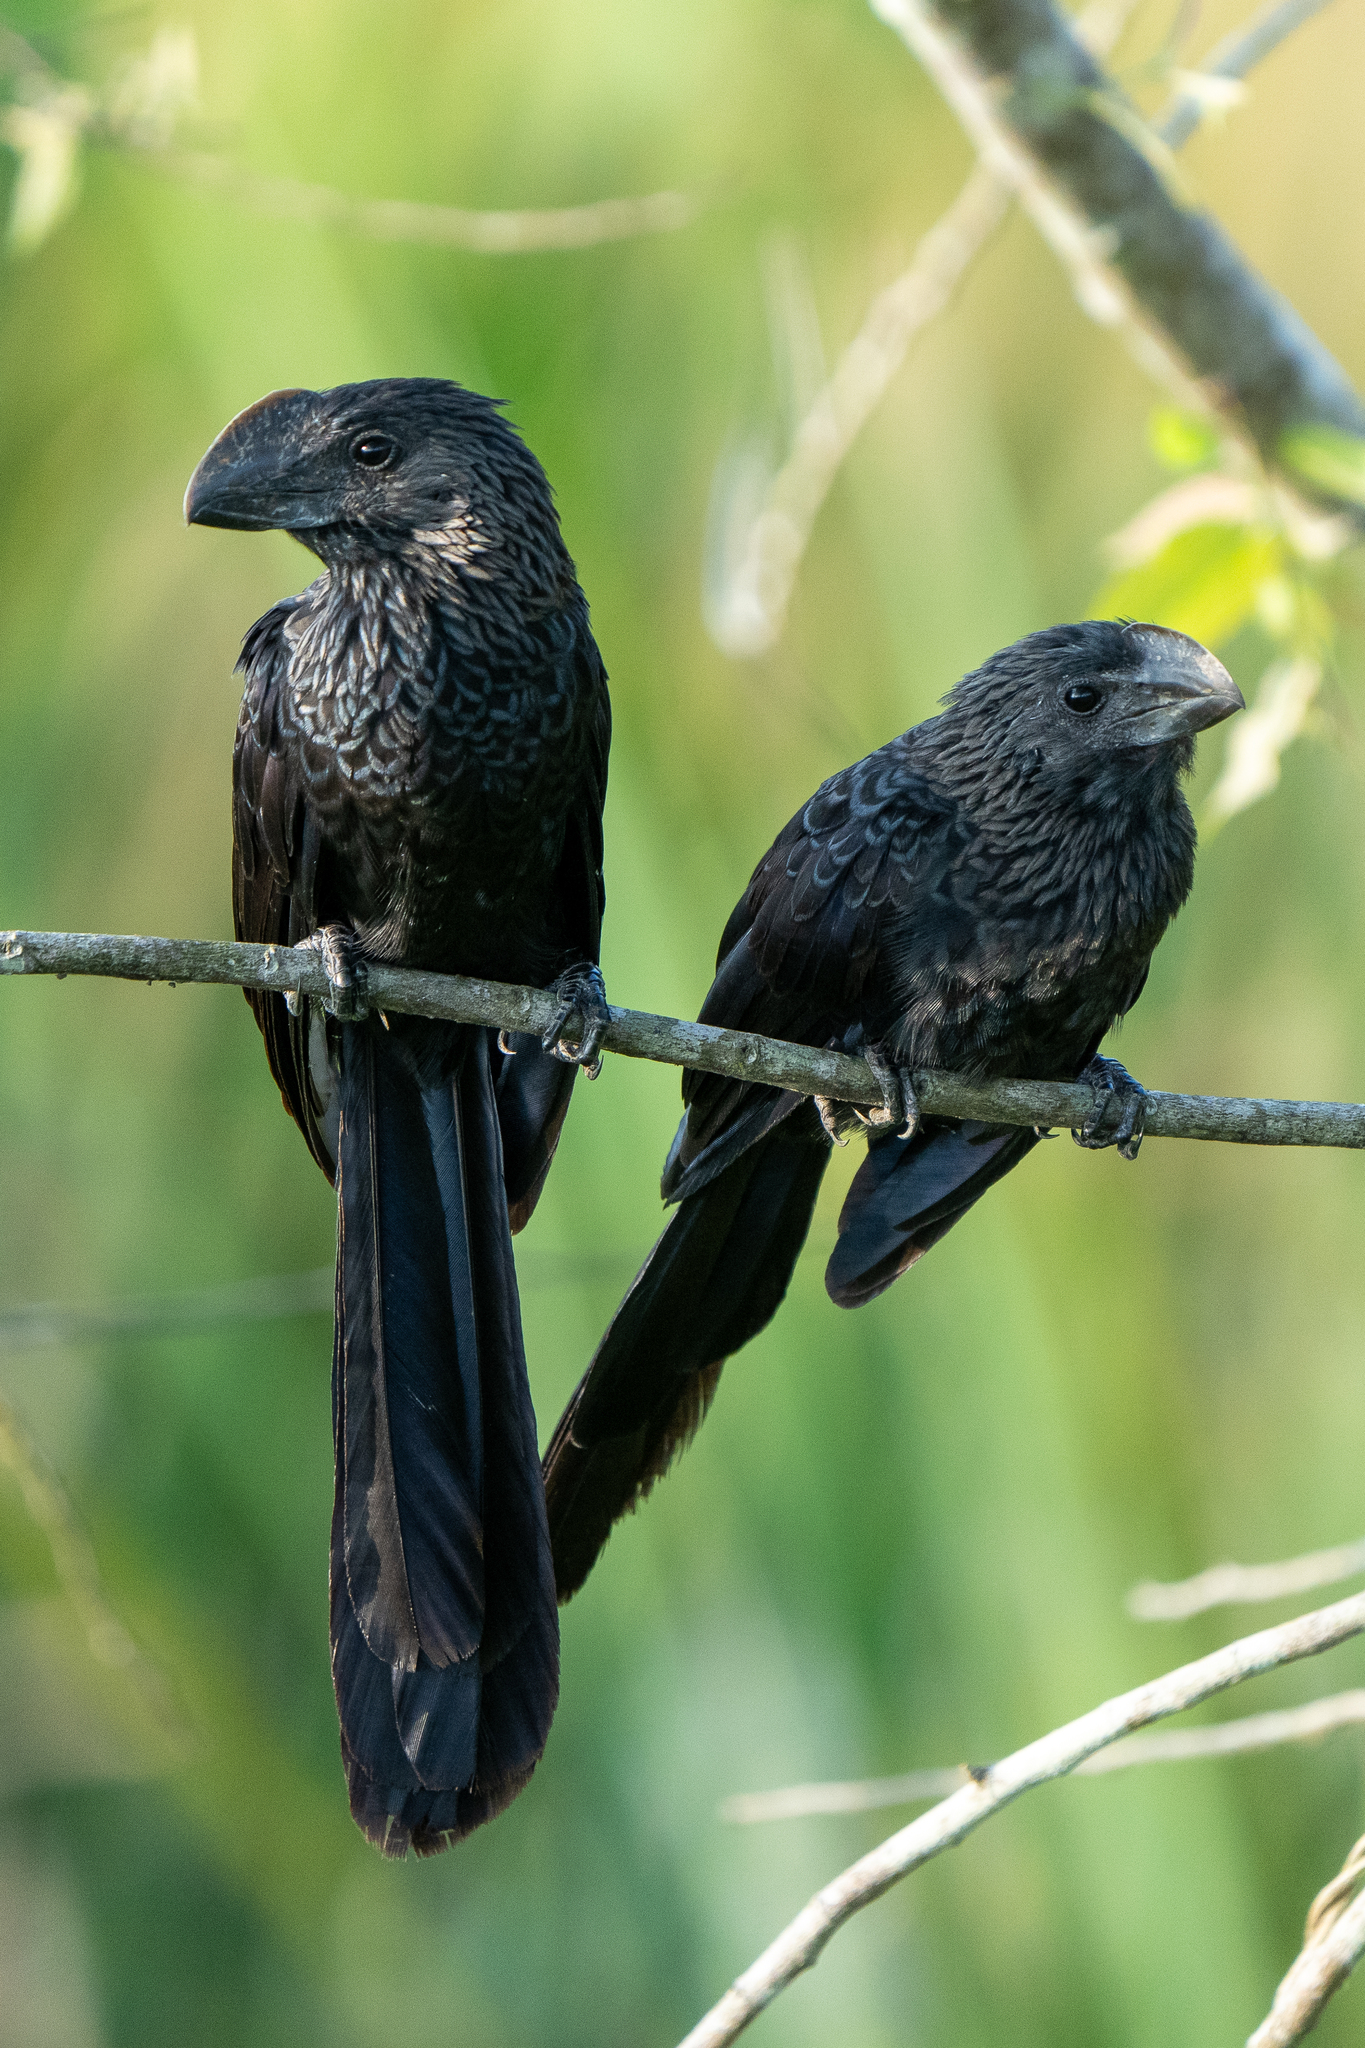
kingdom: Animalia
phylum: Chordata
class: Aves
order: Cuculiformes
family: Cuculidae
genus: Crotophaga
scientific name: Crotophaga ani
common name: Smooth-billed ani
